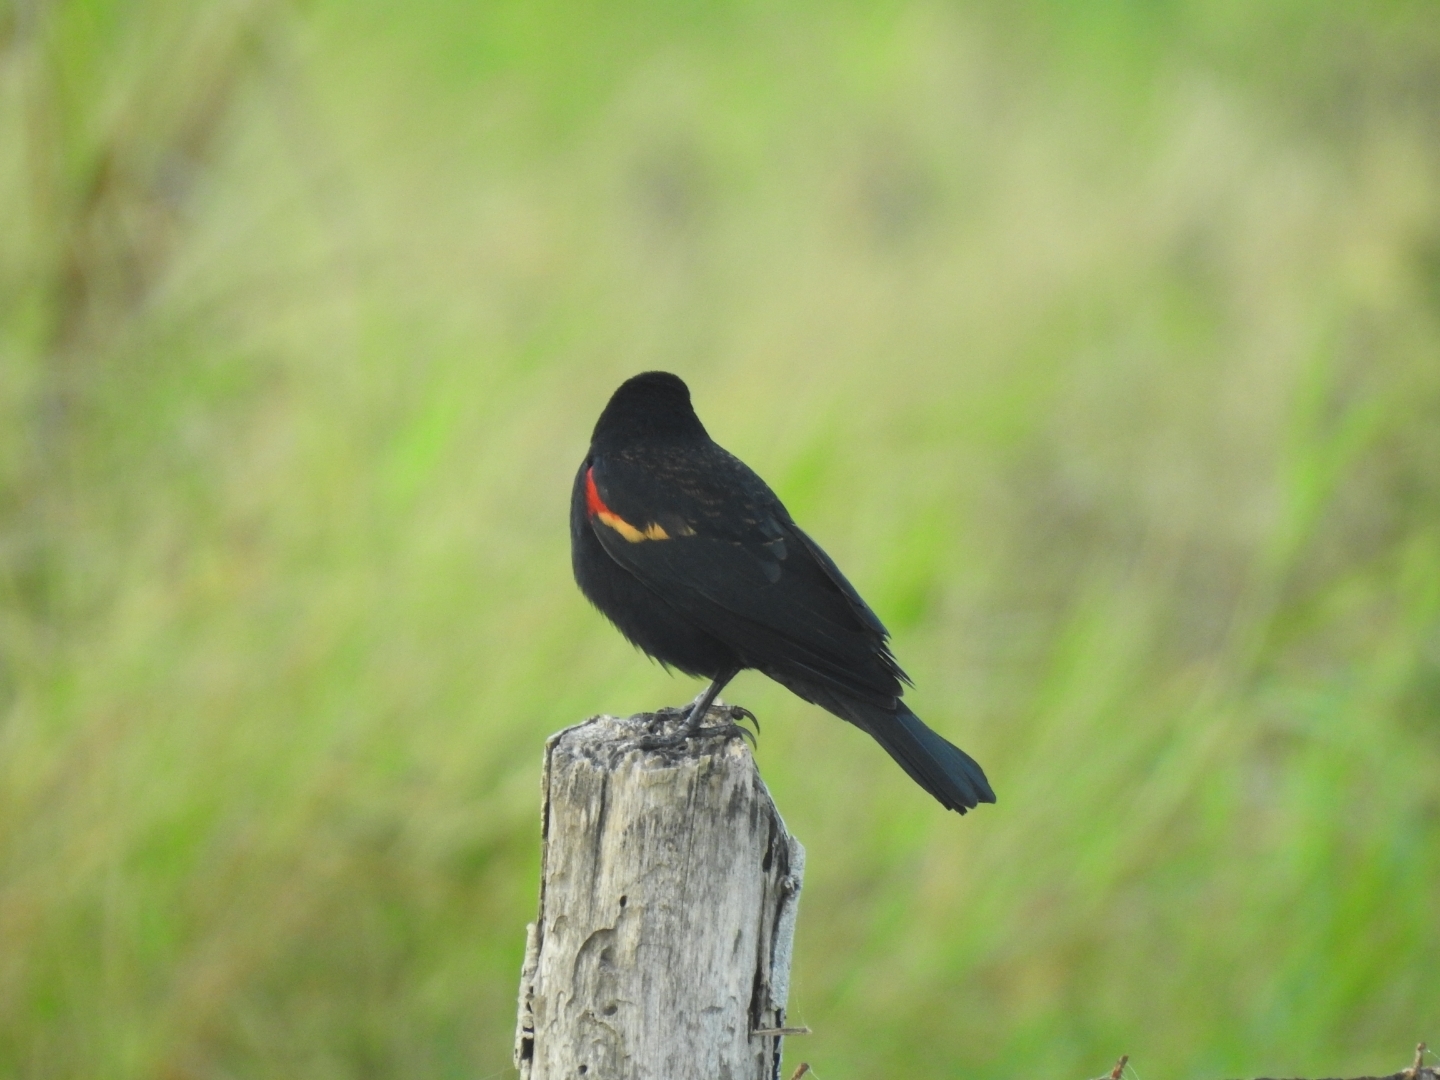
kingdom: Animalia
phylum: Chordata
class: Aves
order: Passeriformes
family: Icteridae
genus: Agelaius
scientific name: Agelaius phoeniceus
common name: Red-winged blackbird
